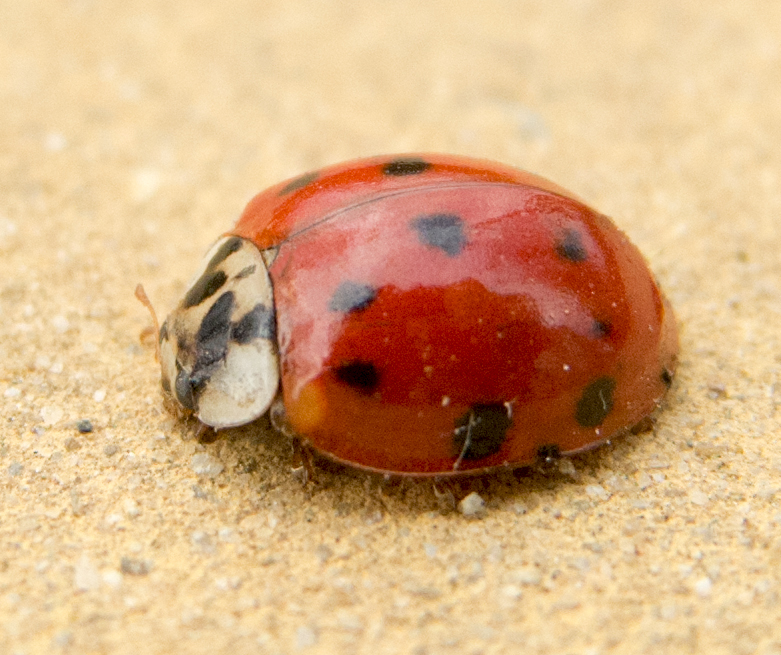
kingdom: Animalia
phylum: Arthropoda
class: Insecta
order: Coleoptera
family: Coccinellidae
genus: Harmonia
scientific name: Harmonia axyridis
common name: Harlequin ladybird
